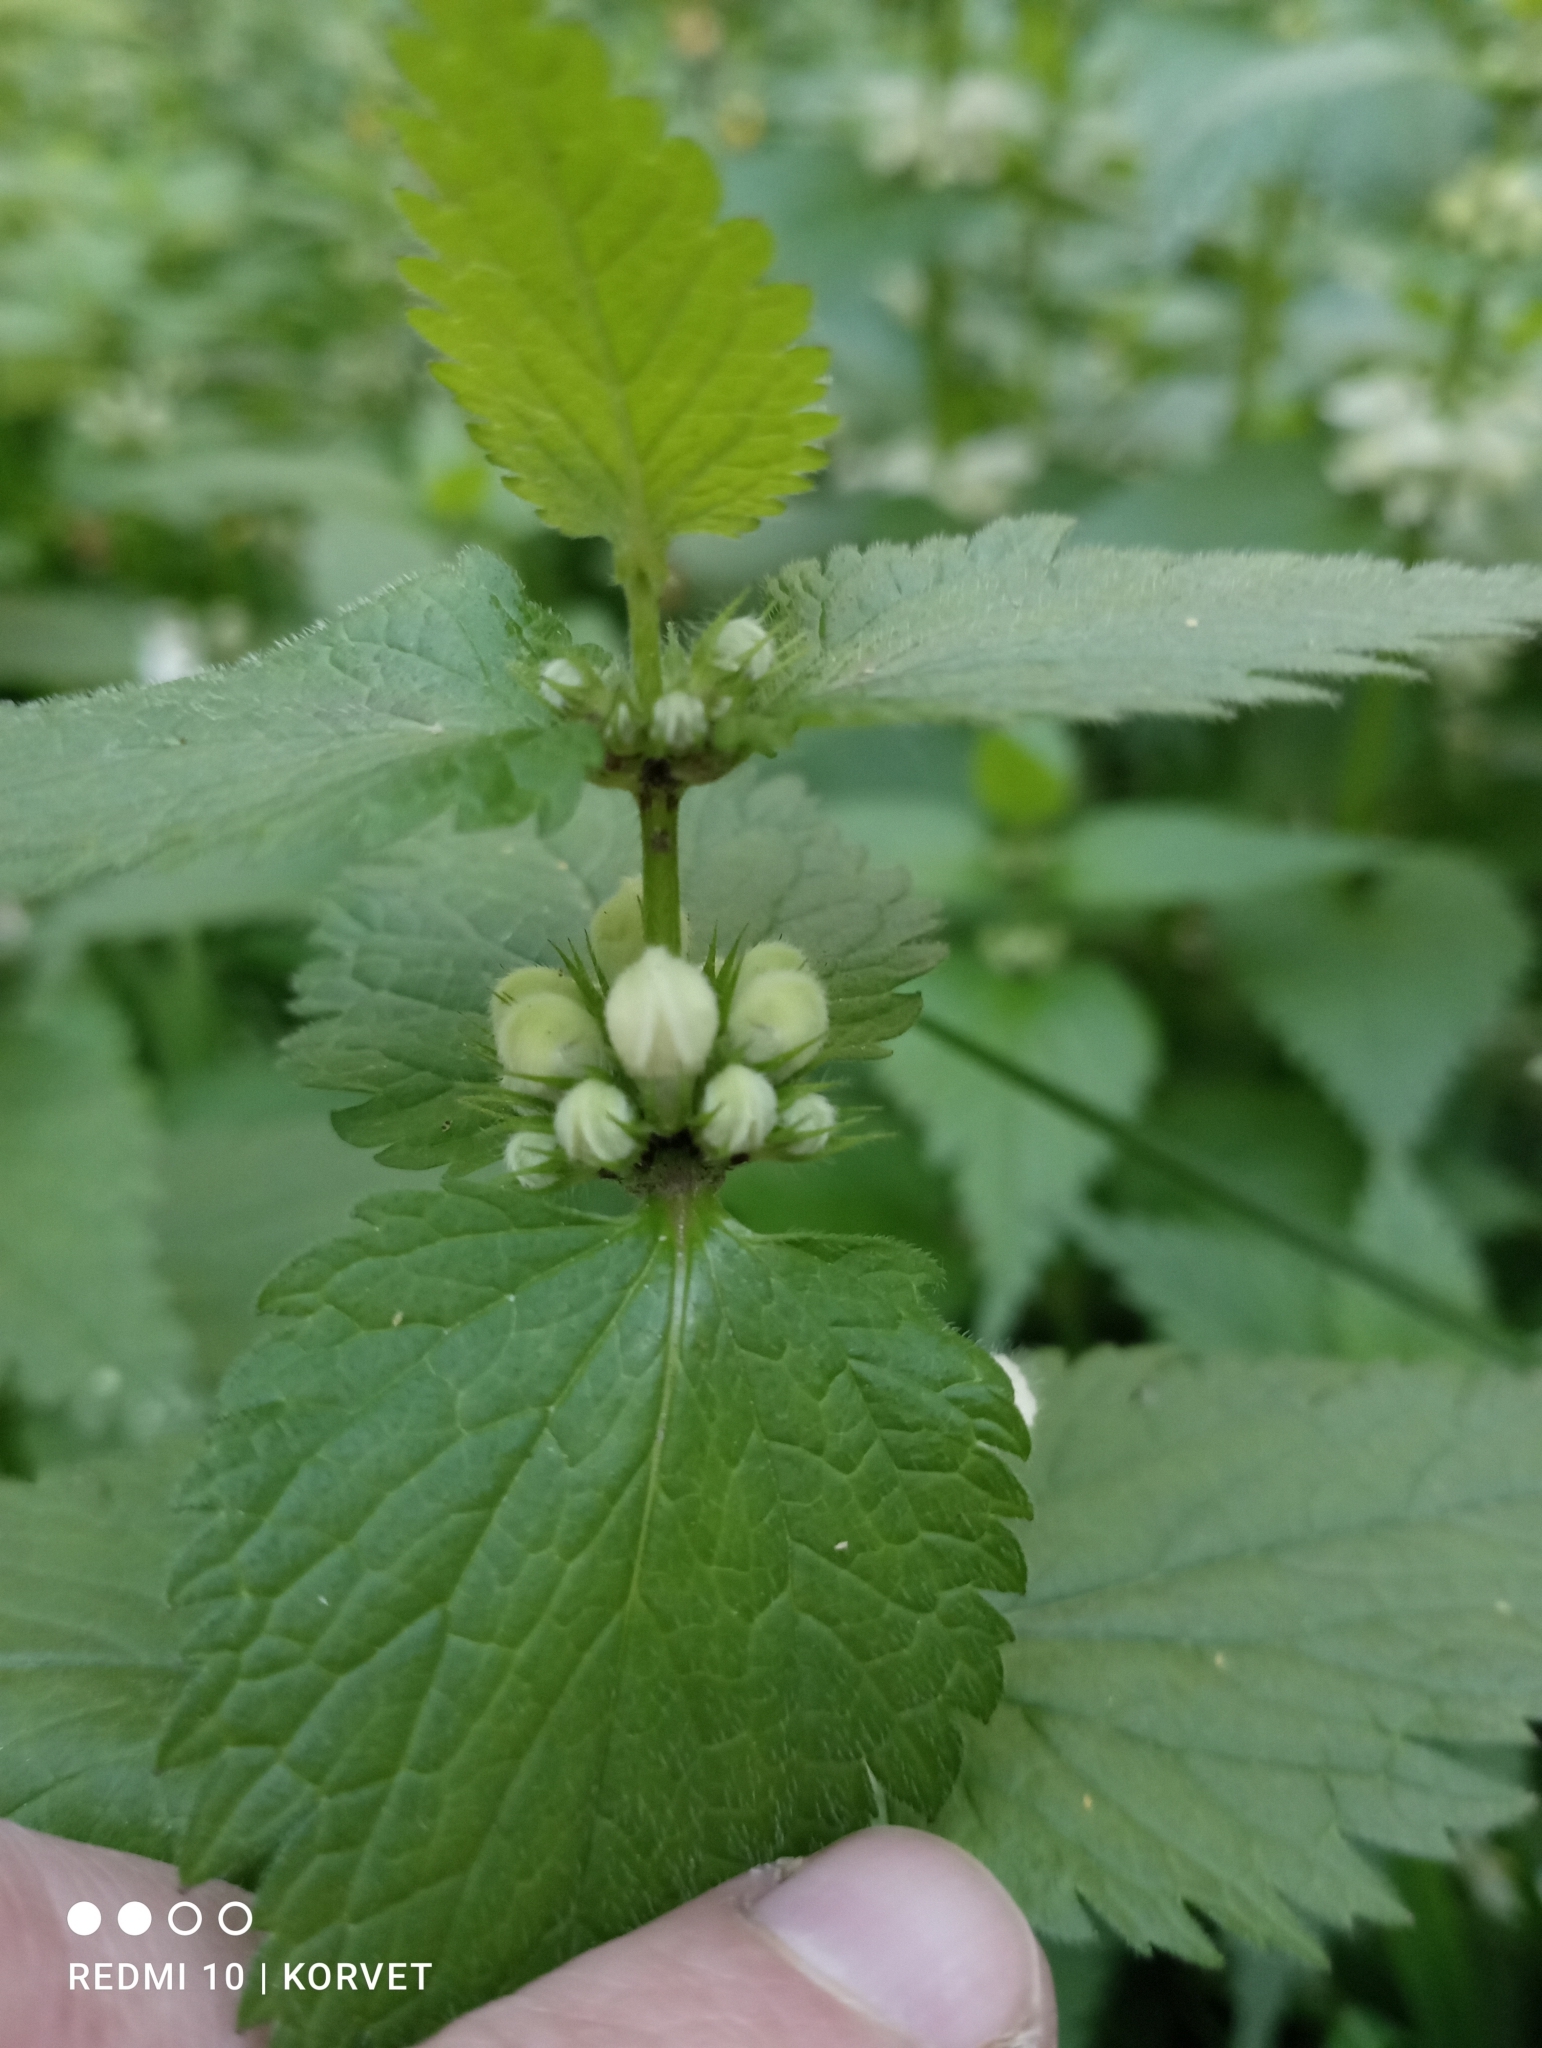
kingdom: Plantae
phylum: Tracheophyta
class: Magnoliopsida
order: Lamiales
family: Lamiaceae
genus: Lamium
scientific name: Lamium album
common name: White dead-nettle
